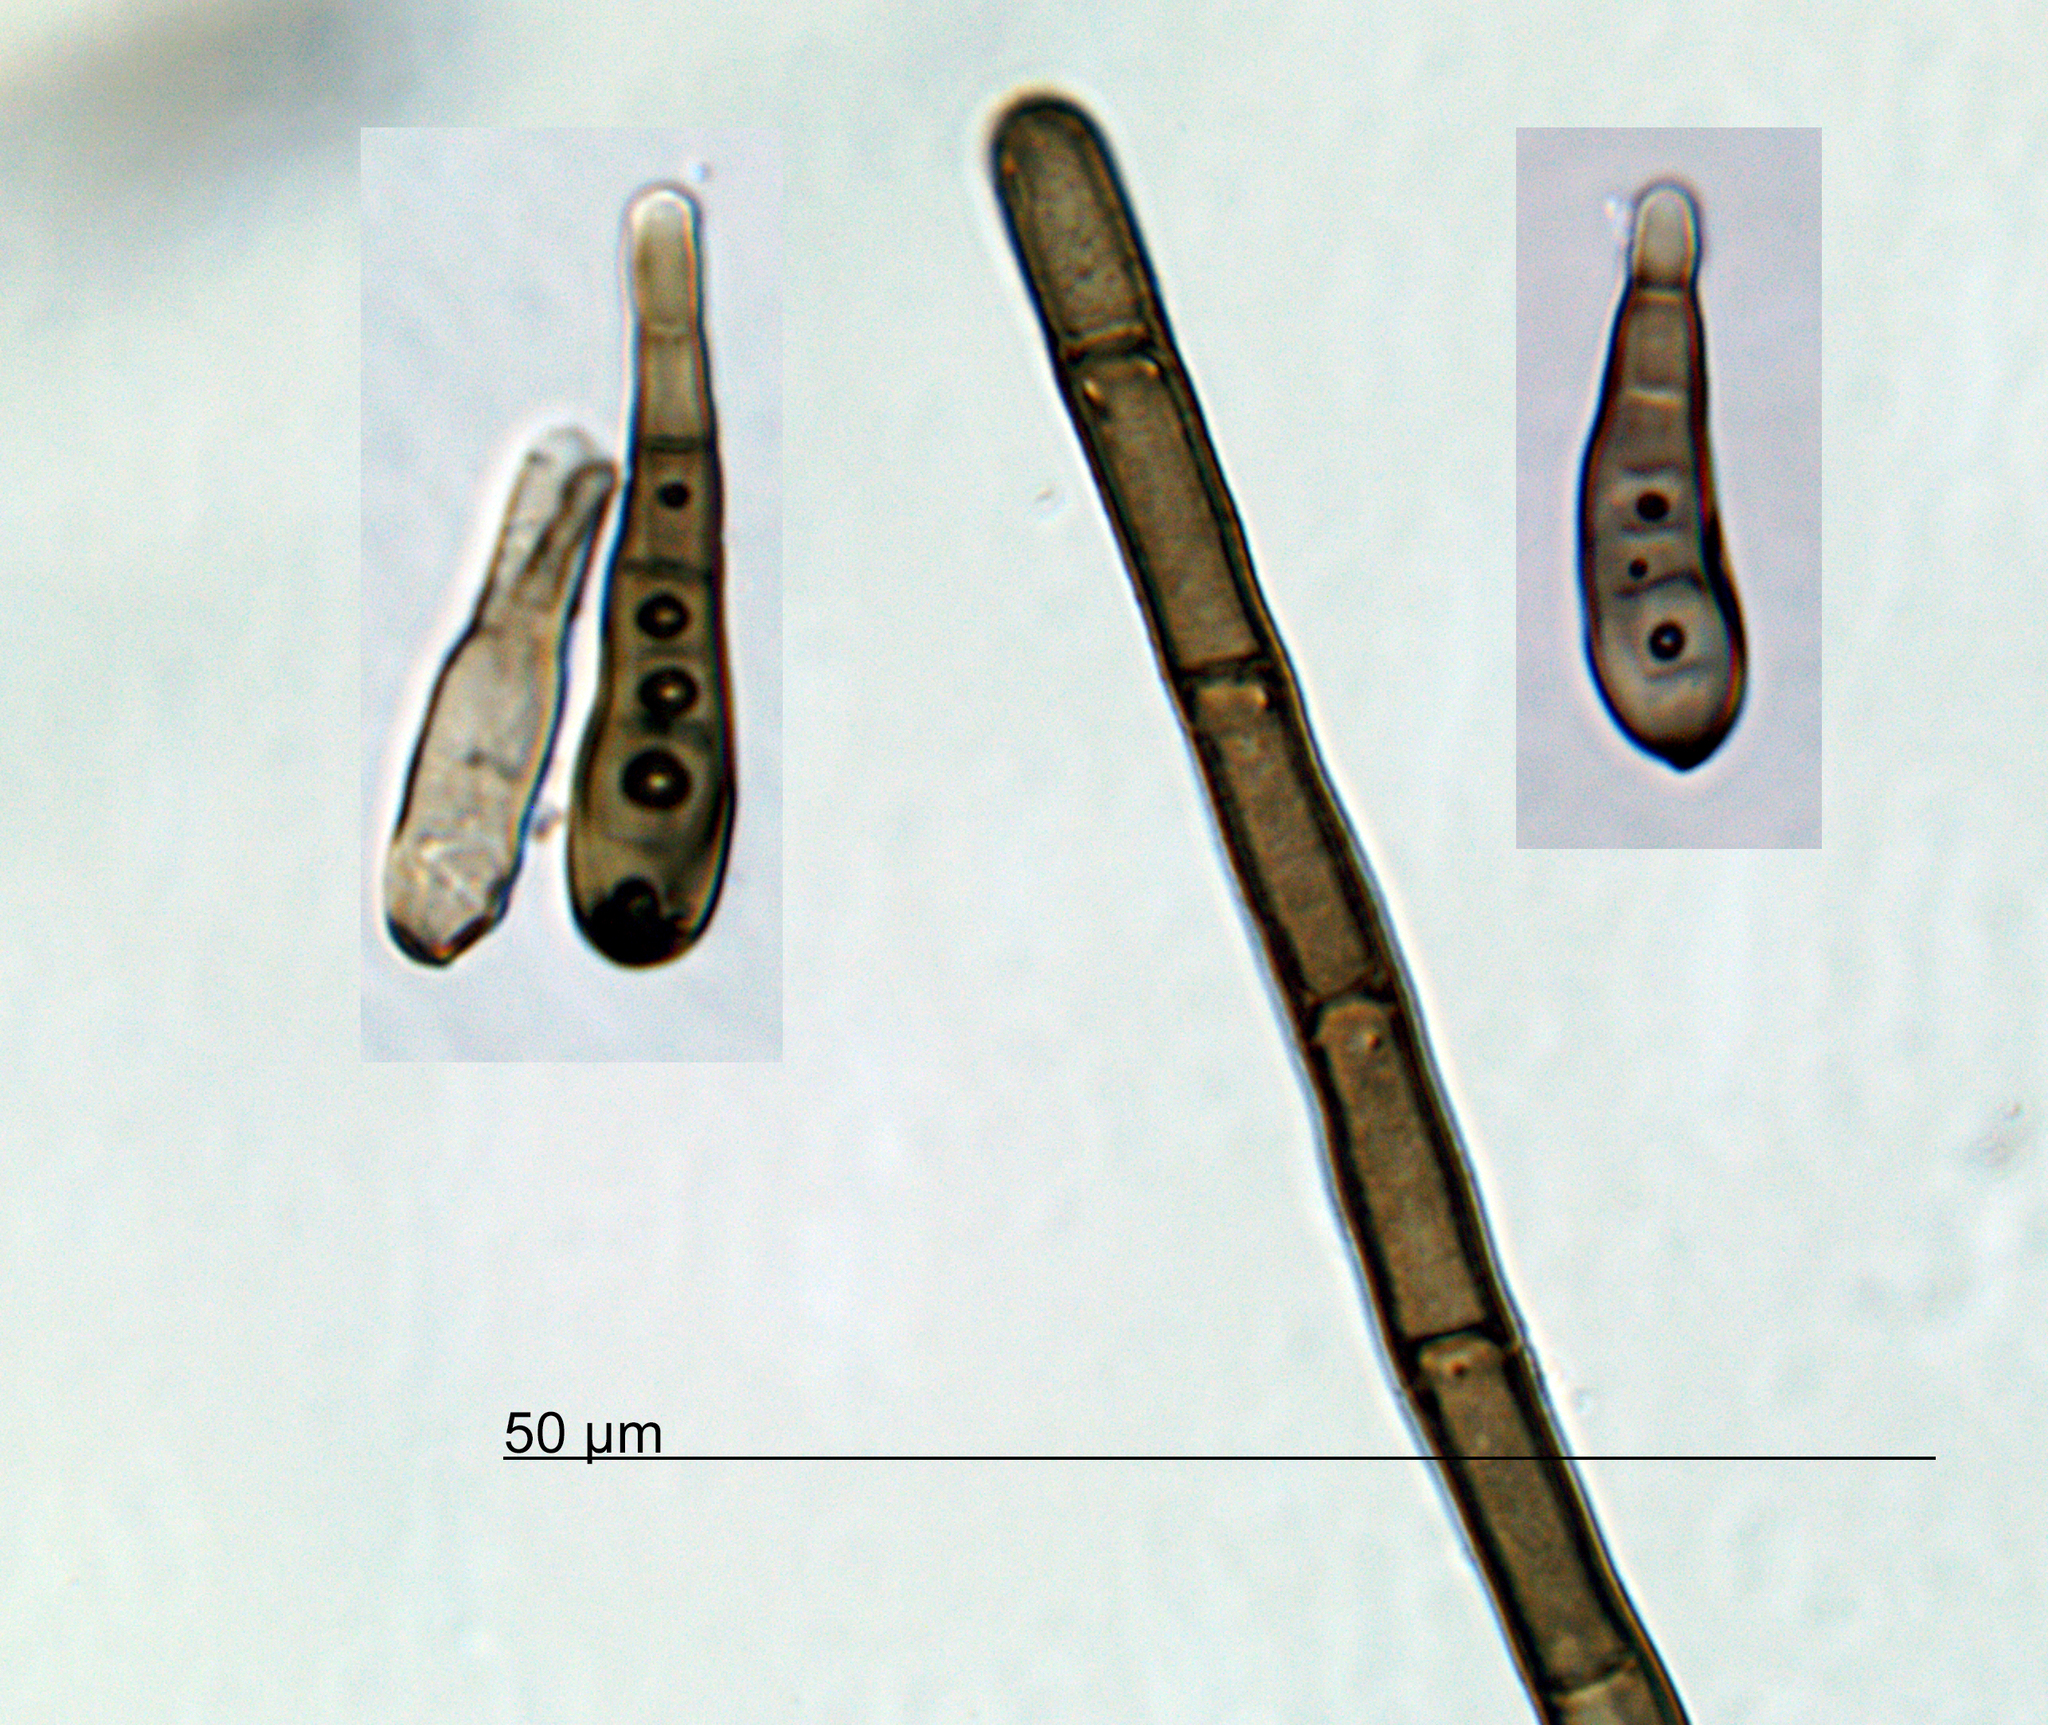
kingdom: Fungi
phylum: Ascomycota
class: Dothideomycetes
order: Pleosporales
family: Massarinaceae
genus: Helminthosporium
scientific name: Helminthosporium solani
